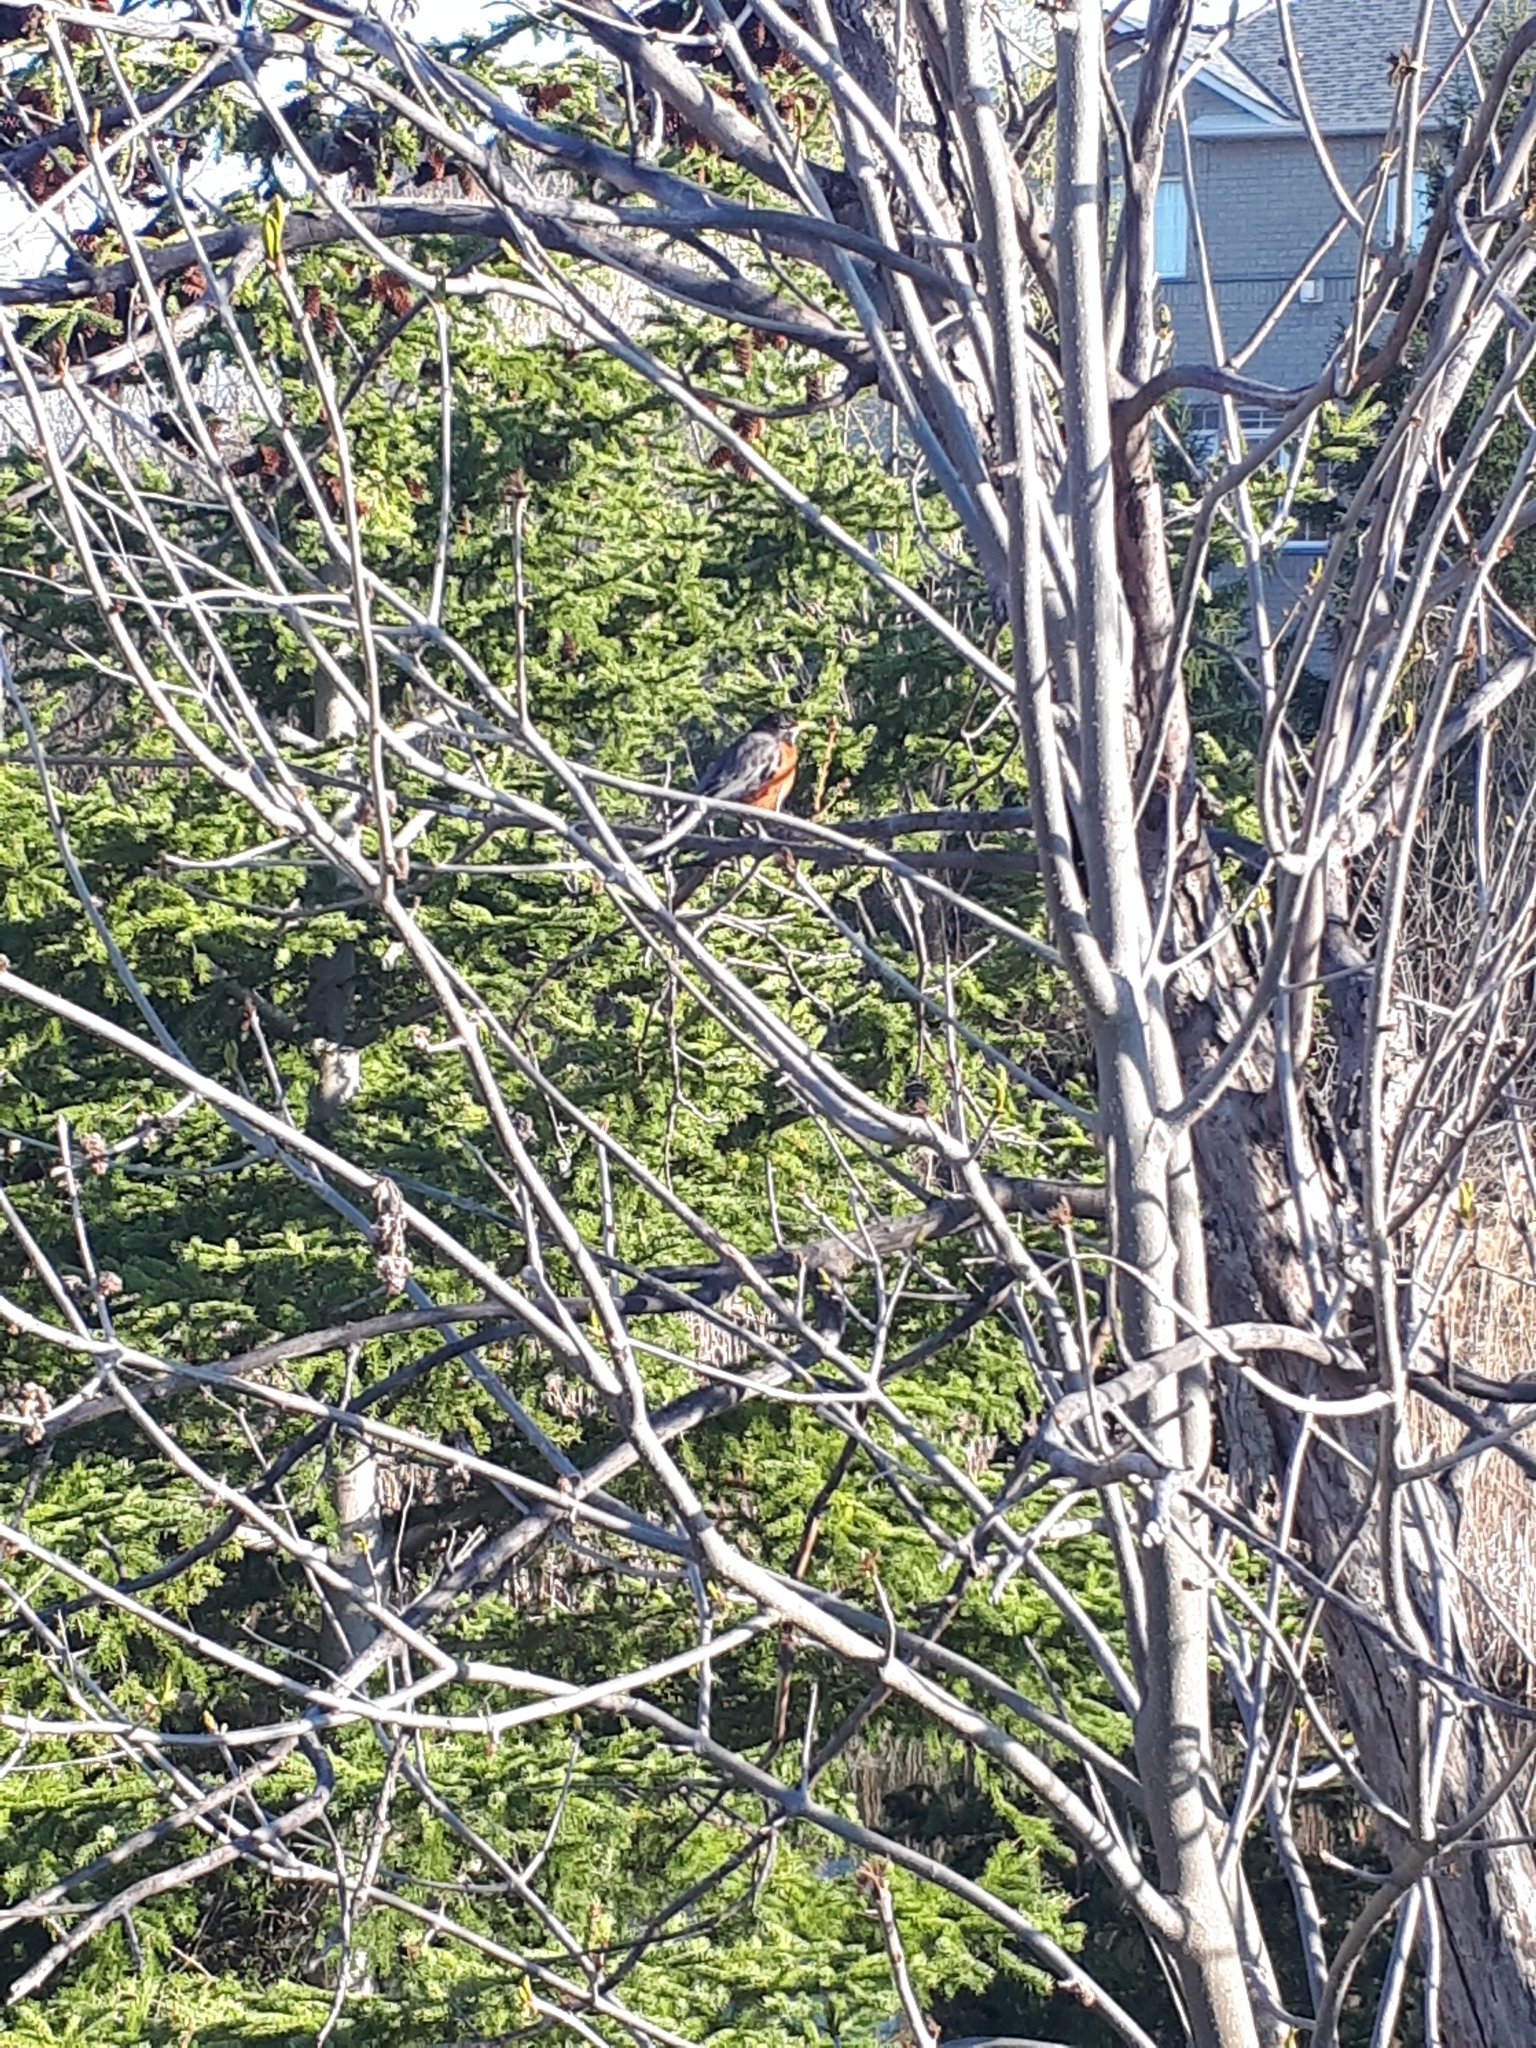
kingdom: Animalia
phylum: Chordata
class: Aves
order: Passeriformes
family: Turdidae
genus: Turdus
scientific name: Turdus migratorius
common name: American robin
